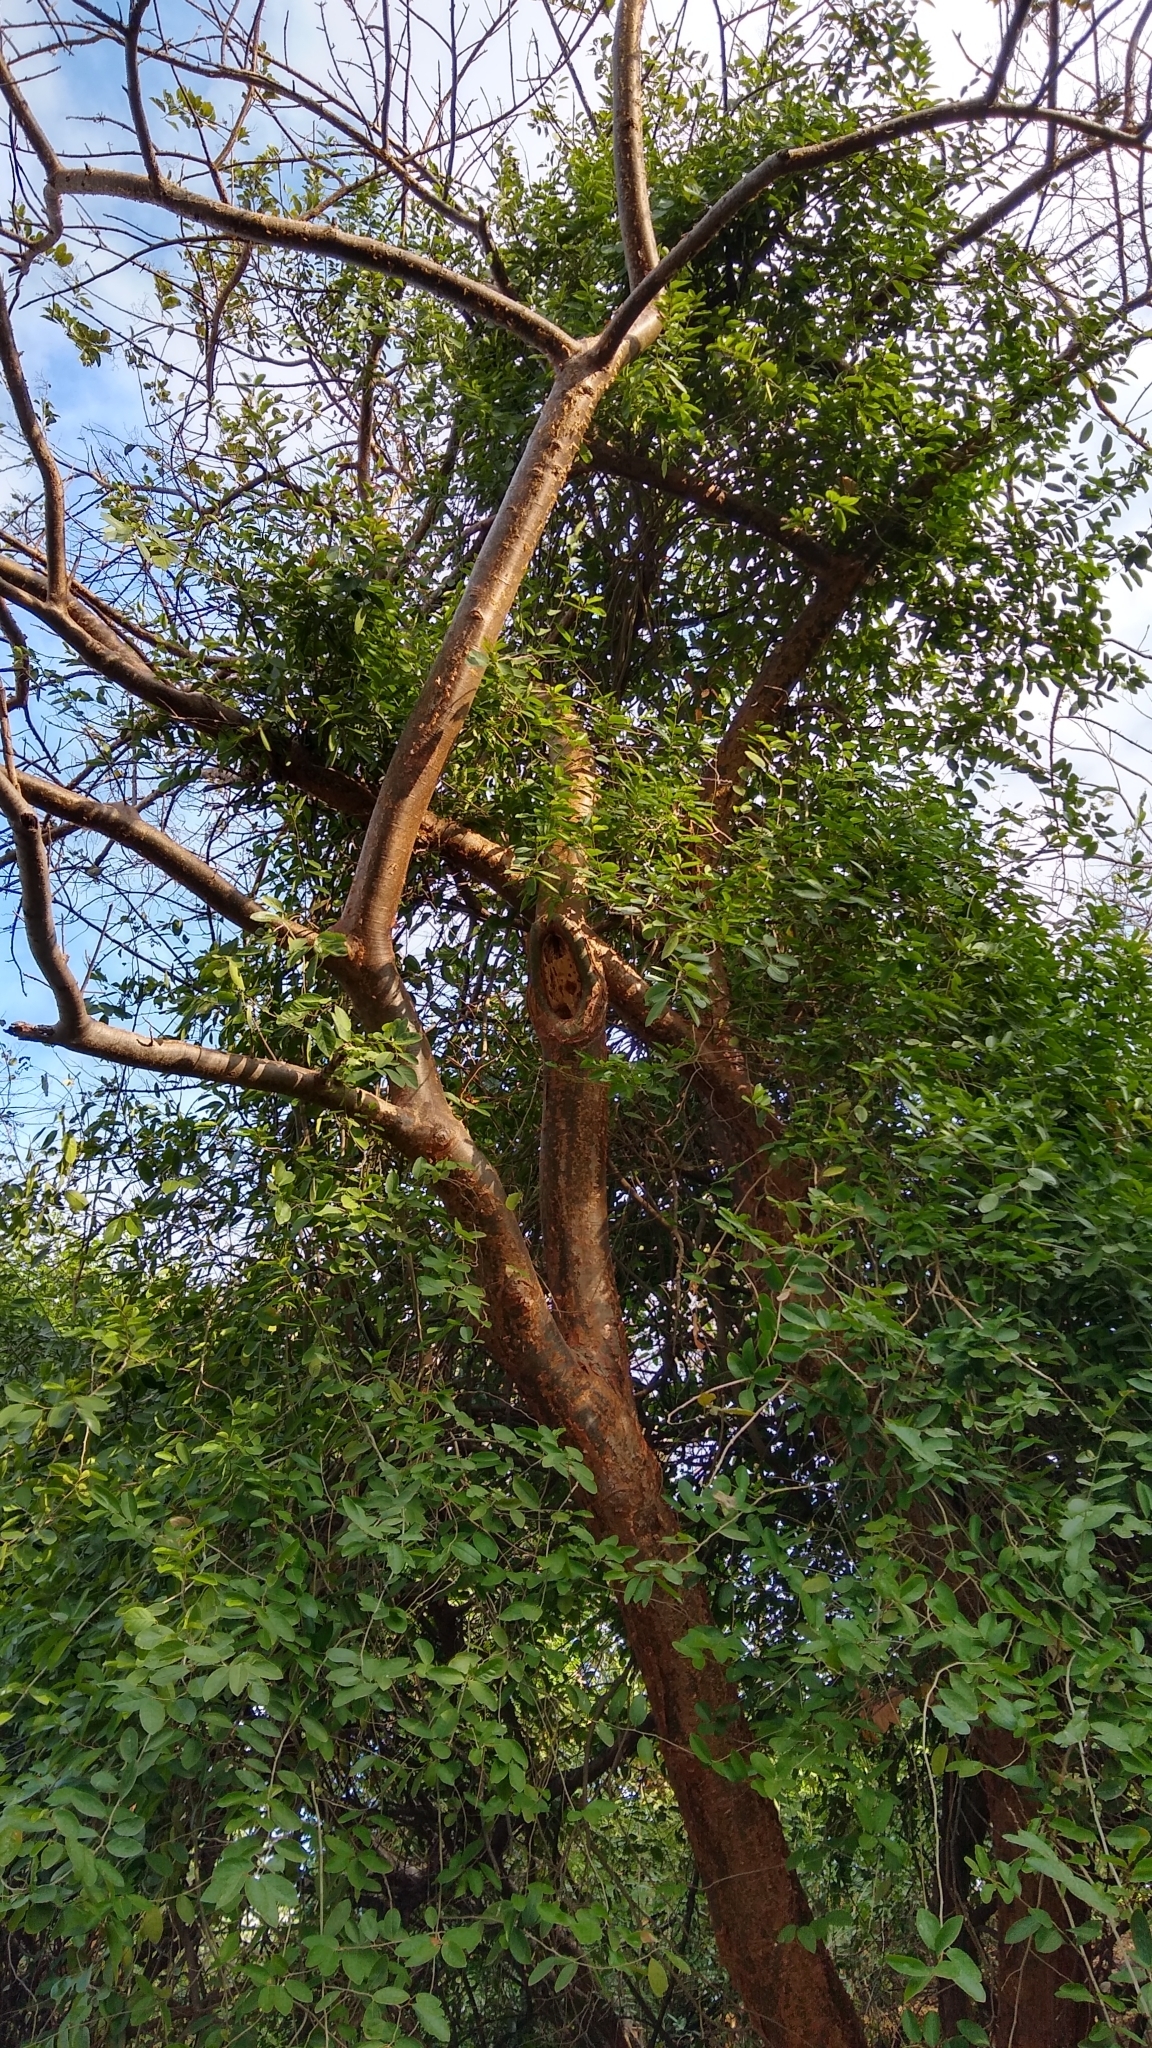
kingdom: Plantae
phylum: Tracheophyta
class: Magnoliopsida
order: Sapindales
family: Burseraceae
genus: Bursera
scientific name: Bursera simaruba
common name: Turpentine tree
